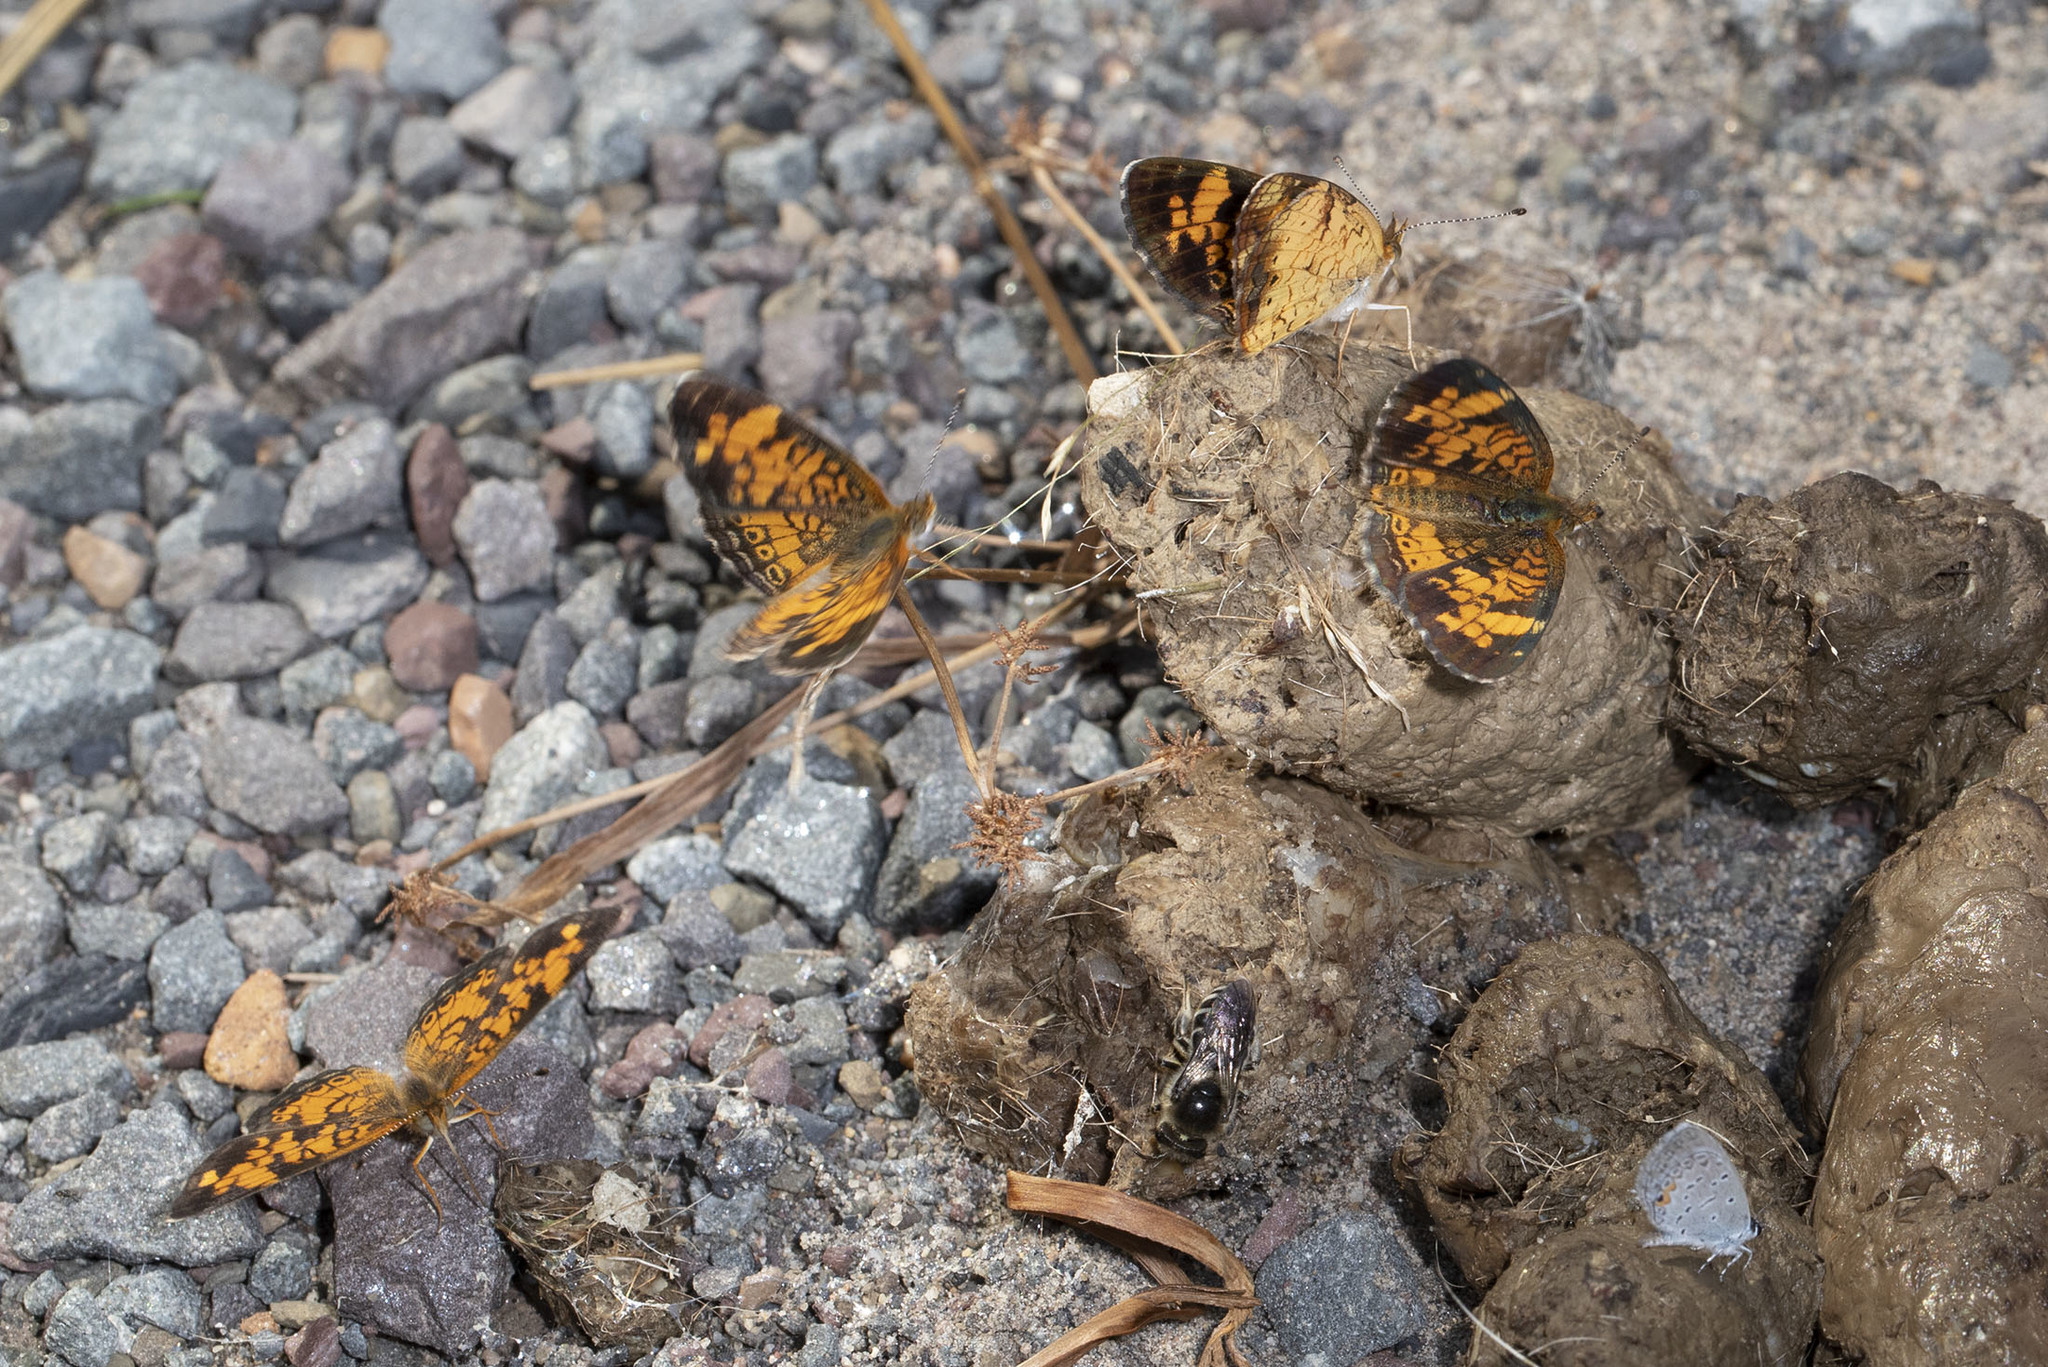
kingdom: Animalia
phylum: Arthropoda
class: Insecta
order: Lepidoptera
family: Nymphalidae
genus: Phyciodes
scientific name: Phyciodes tharos
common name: Pearl crescent
